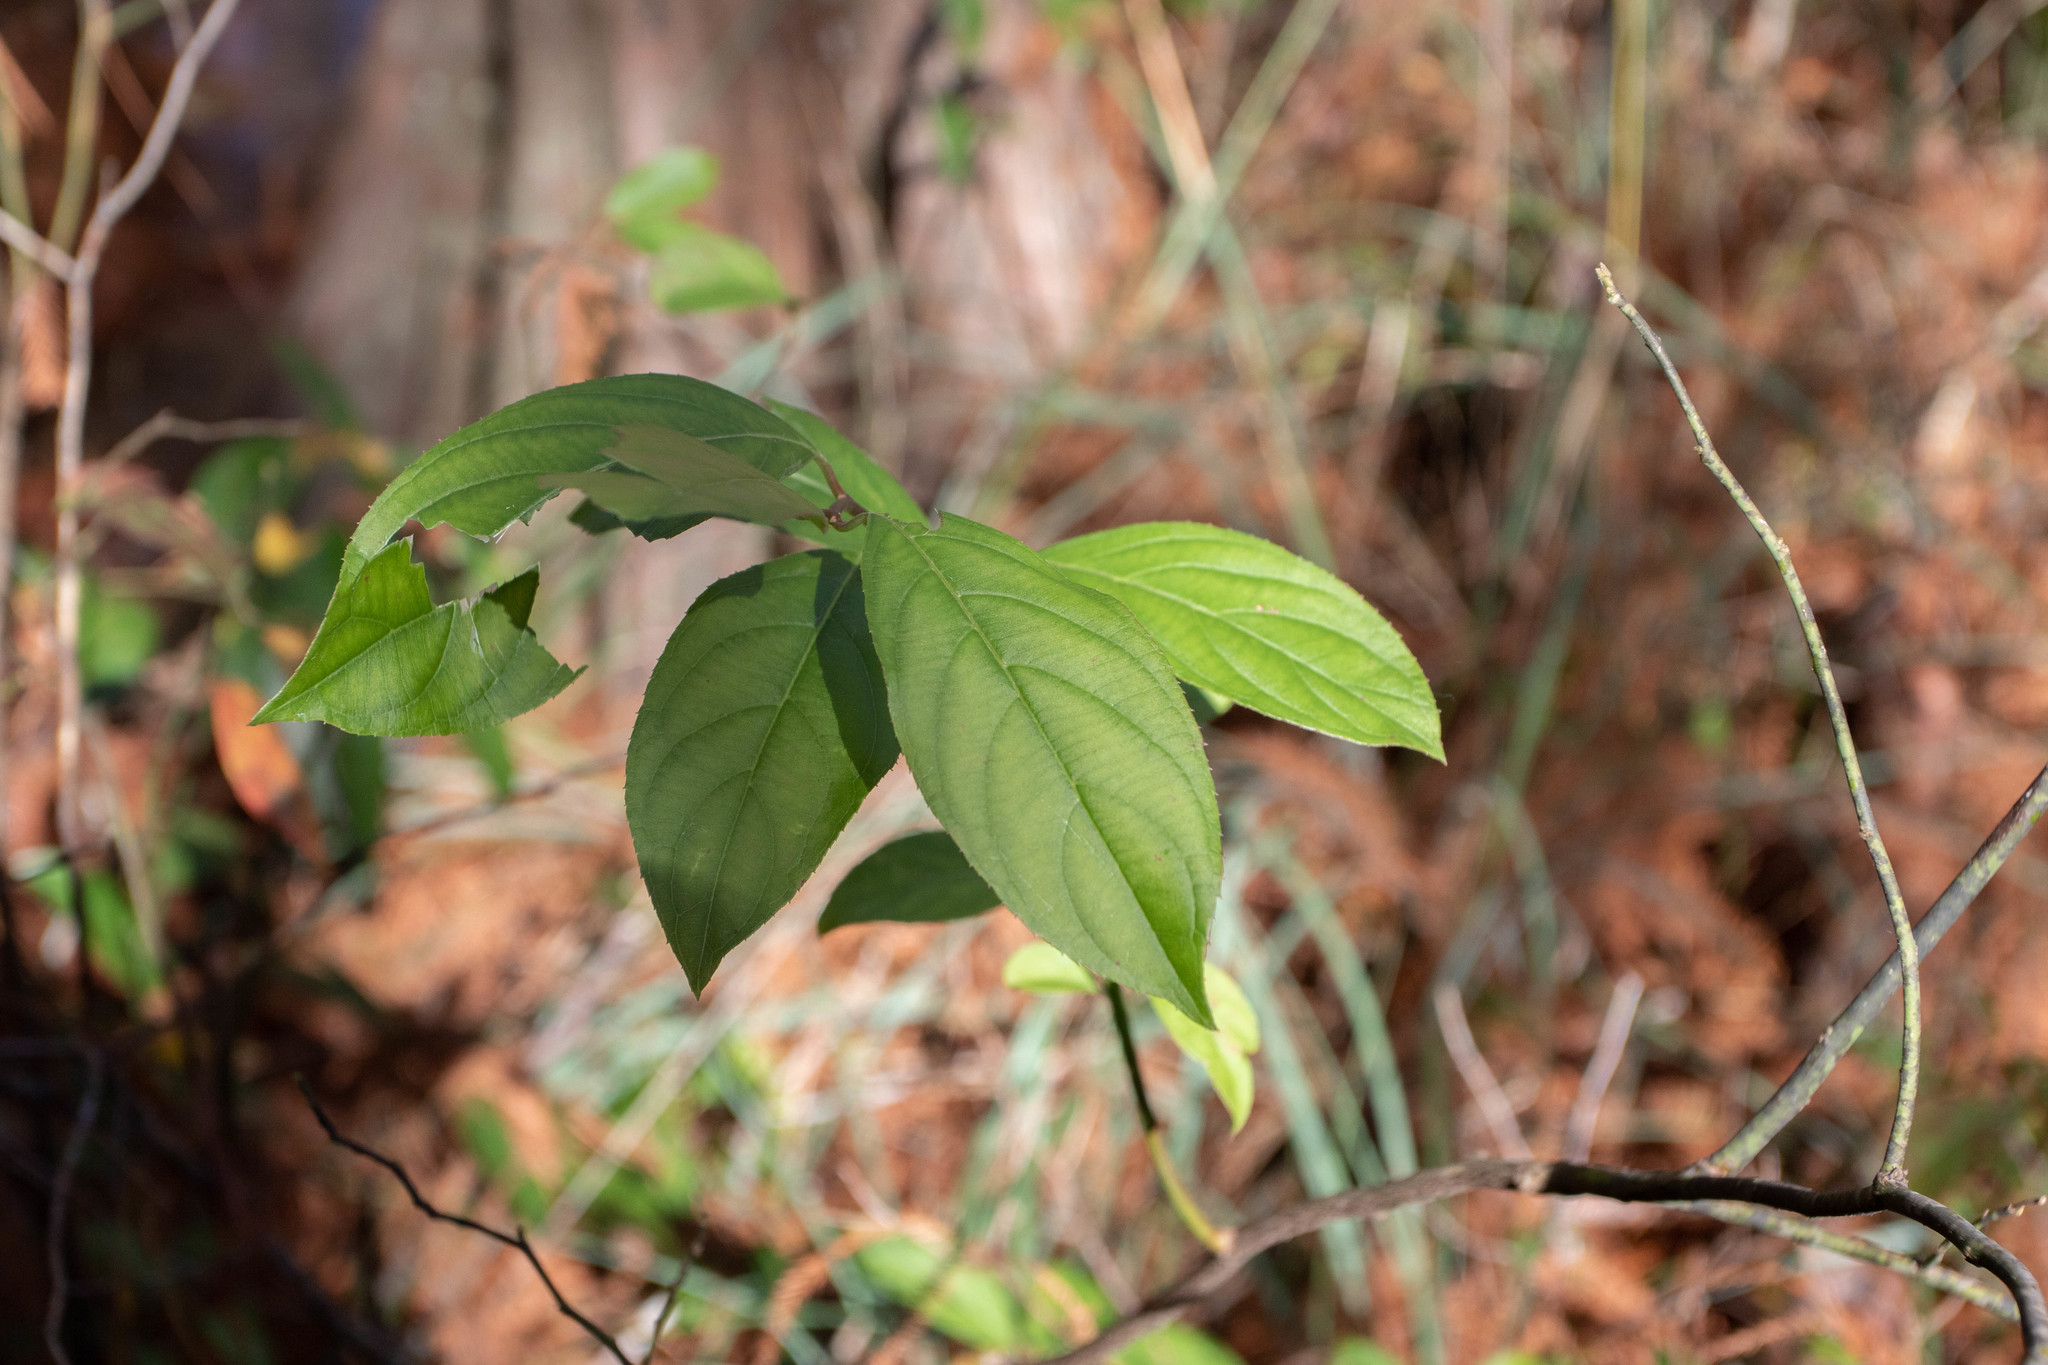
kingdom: Plantae
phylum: Tracheophyta
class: Magnoliopsida
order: Saxifragales
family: Iteaceae
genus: Itea
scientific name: Itea virginica
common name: Sweetspire
